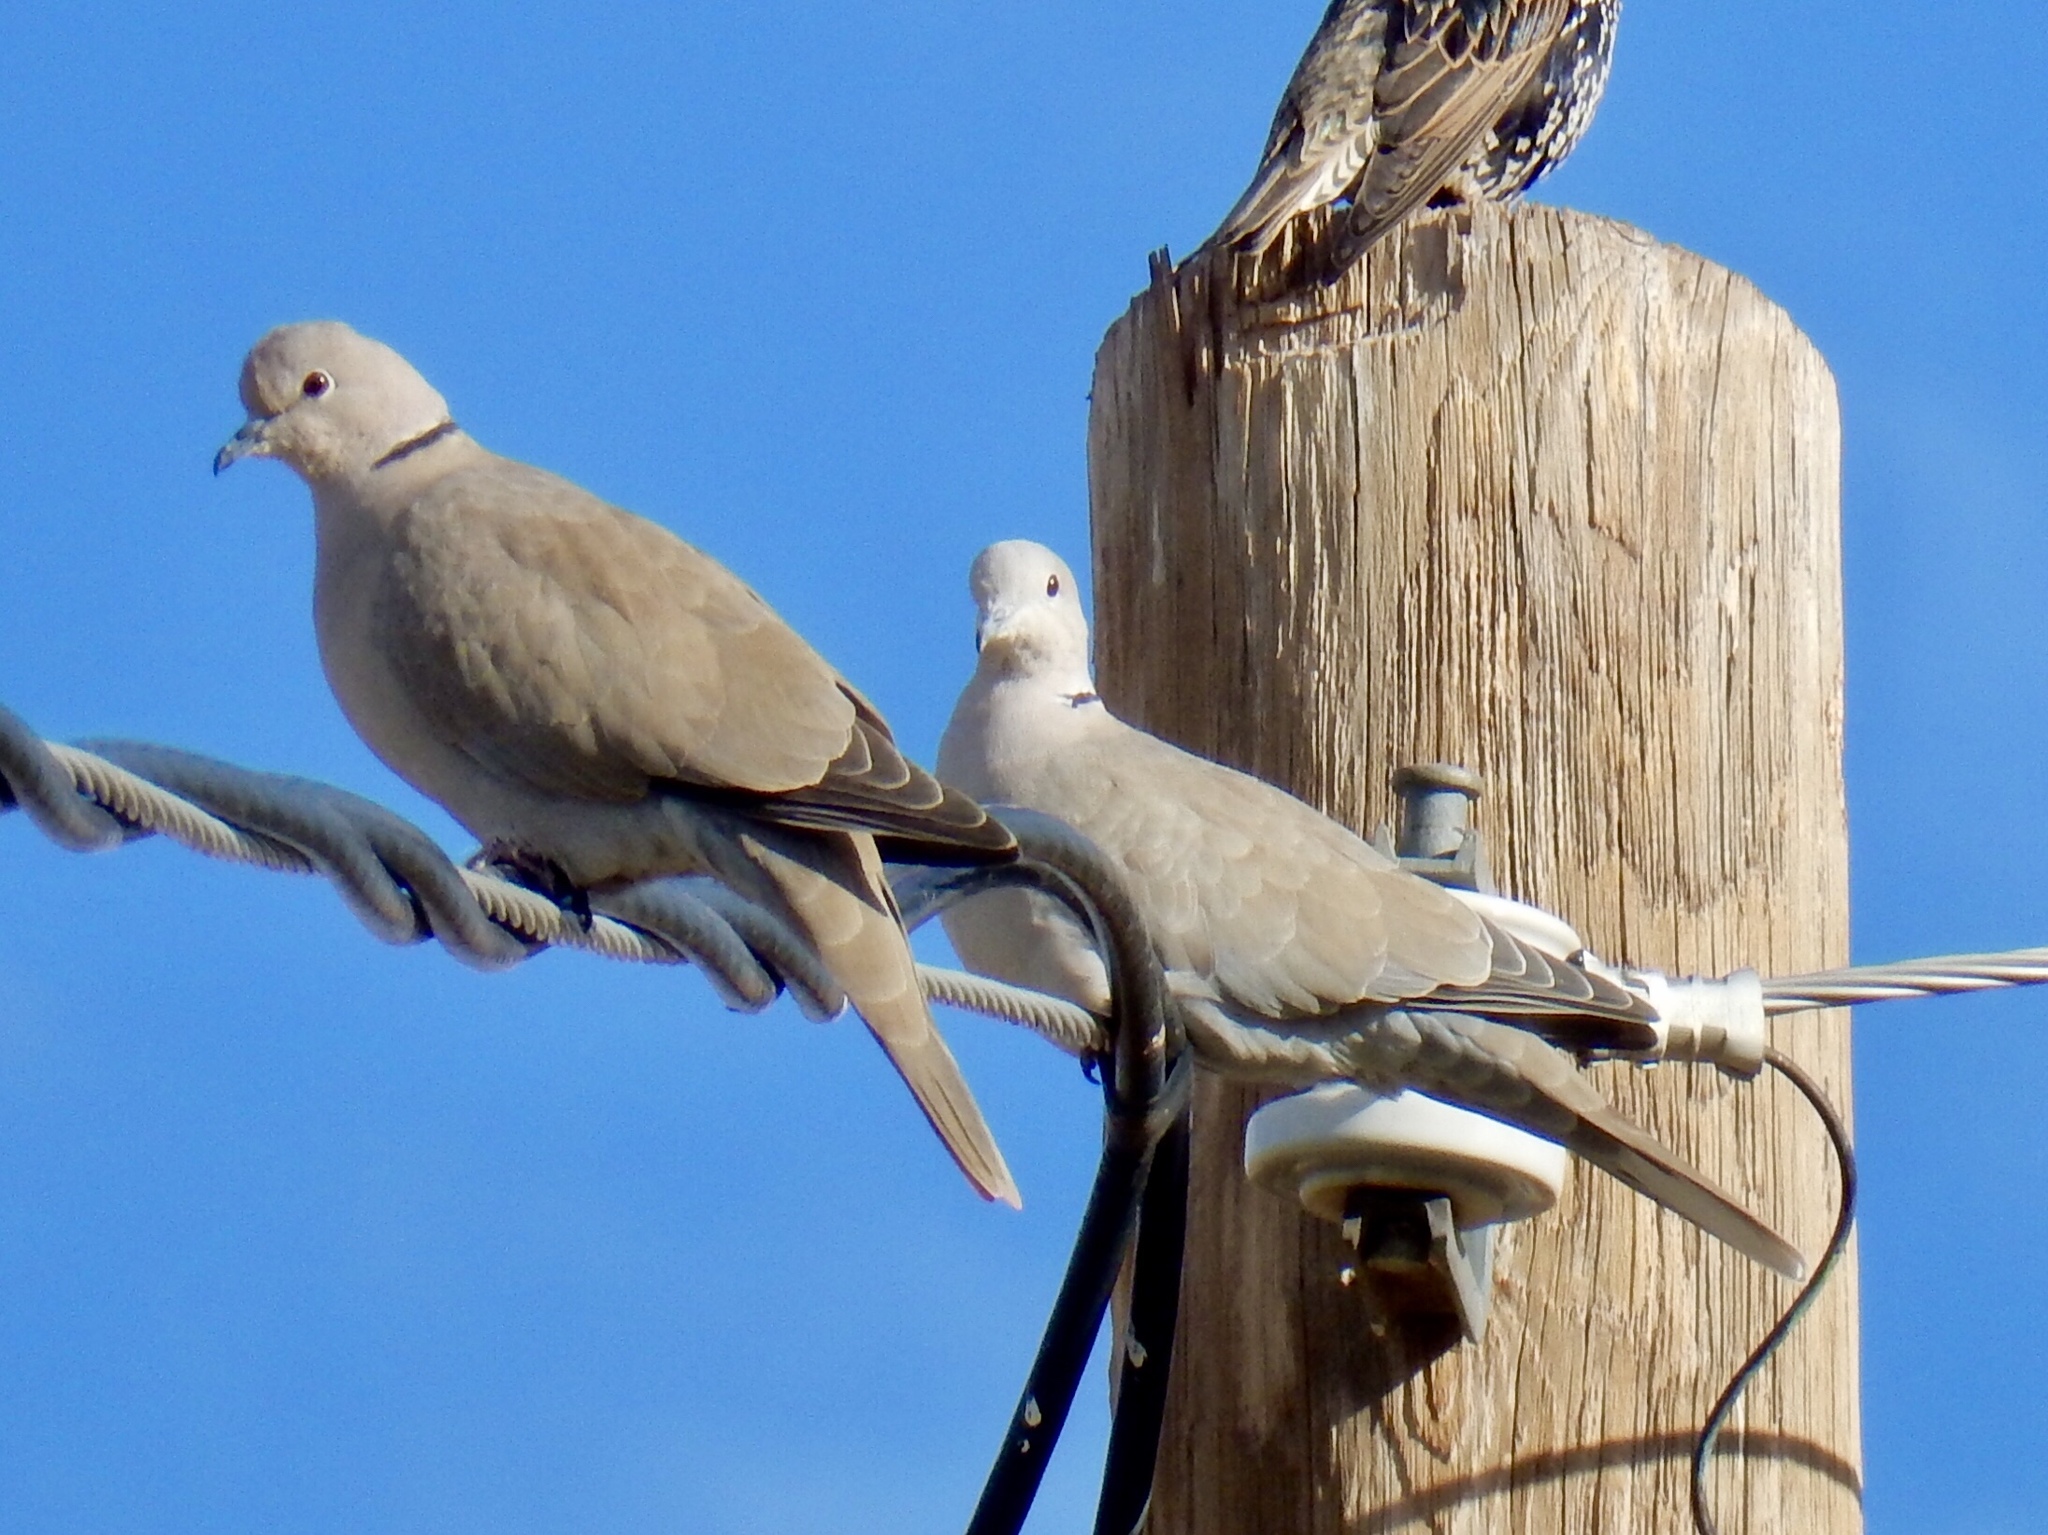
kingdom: Animalia
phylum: Chordata
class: Aves
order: Columbiformes
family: Columbidae
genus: Streptopelia
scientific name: Streptopelia decaocto
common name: Eurasian collared dove
